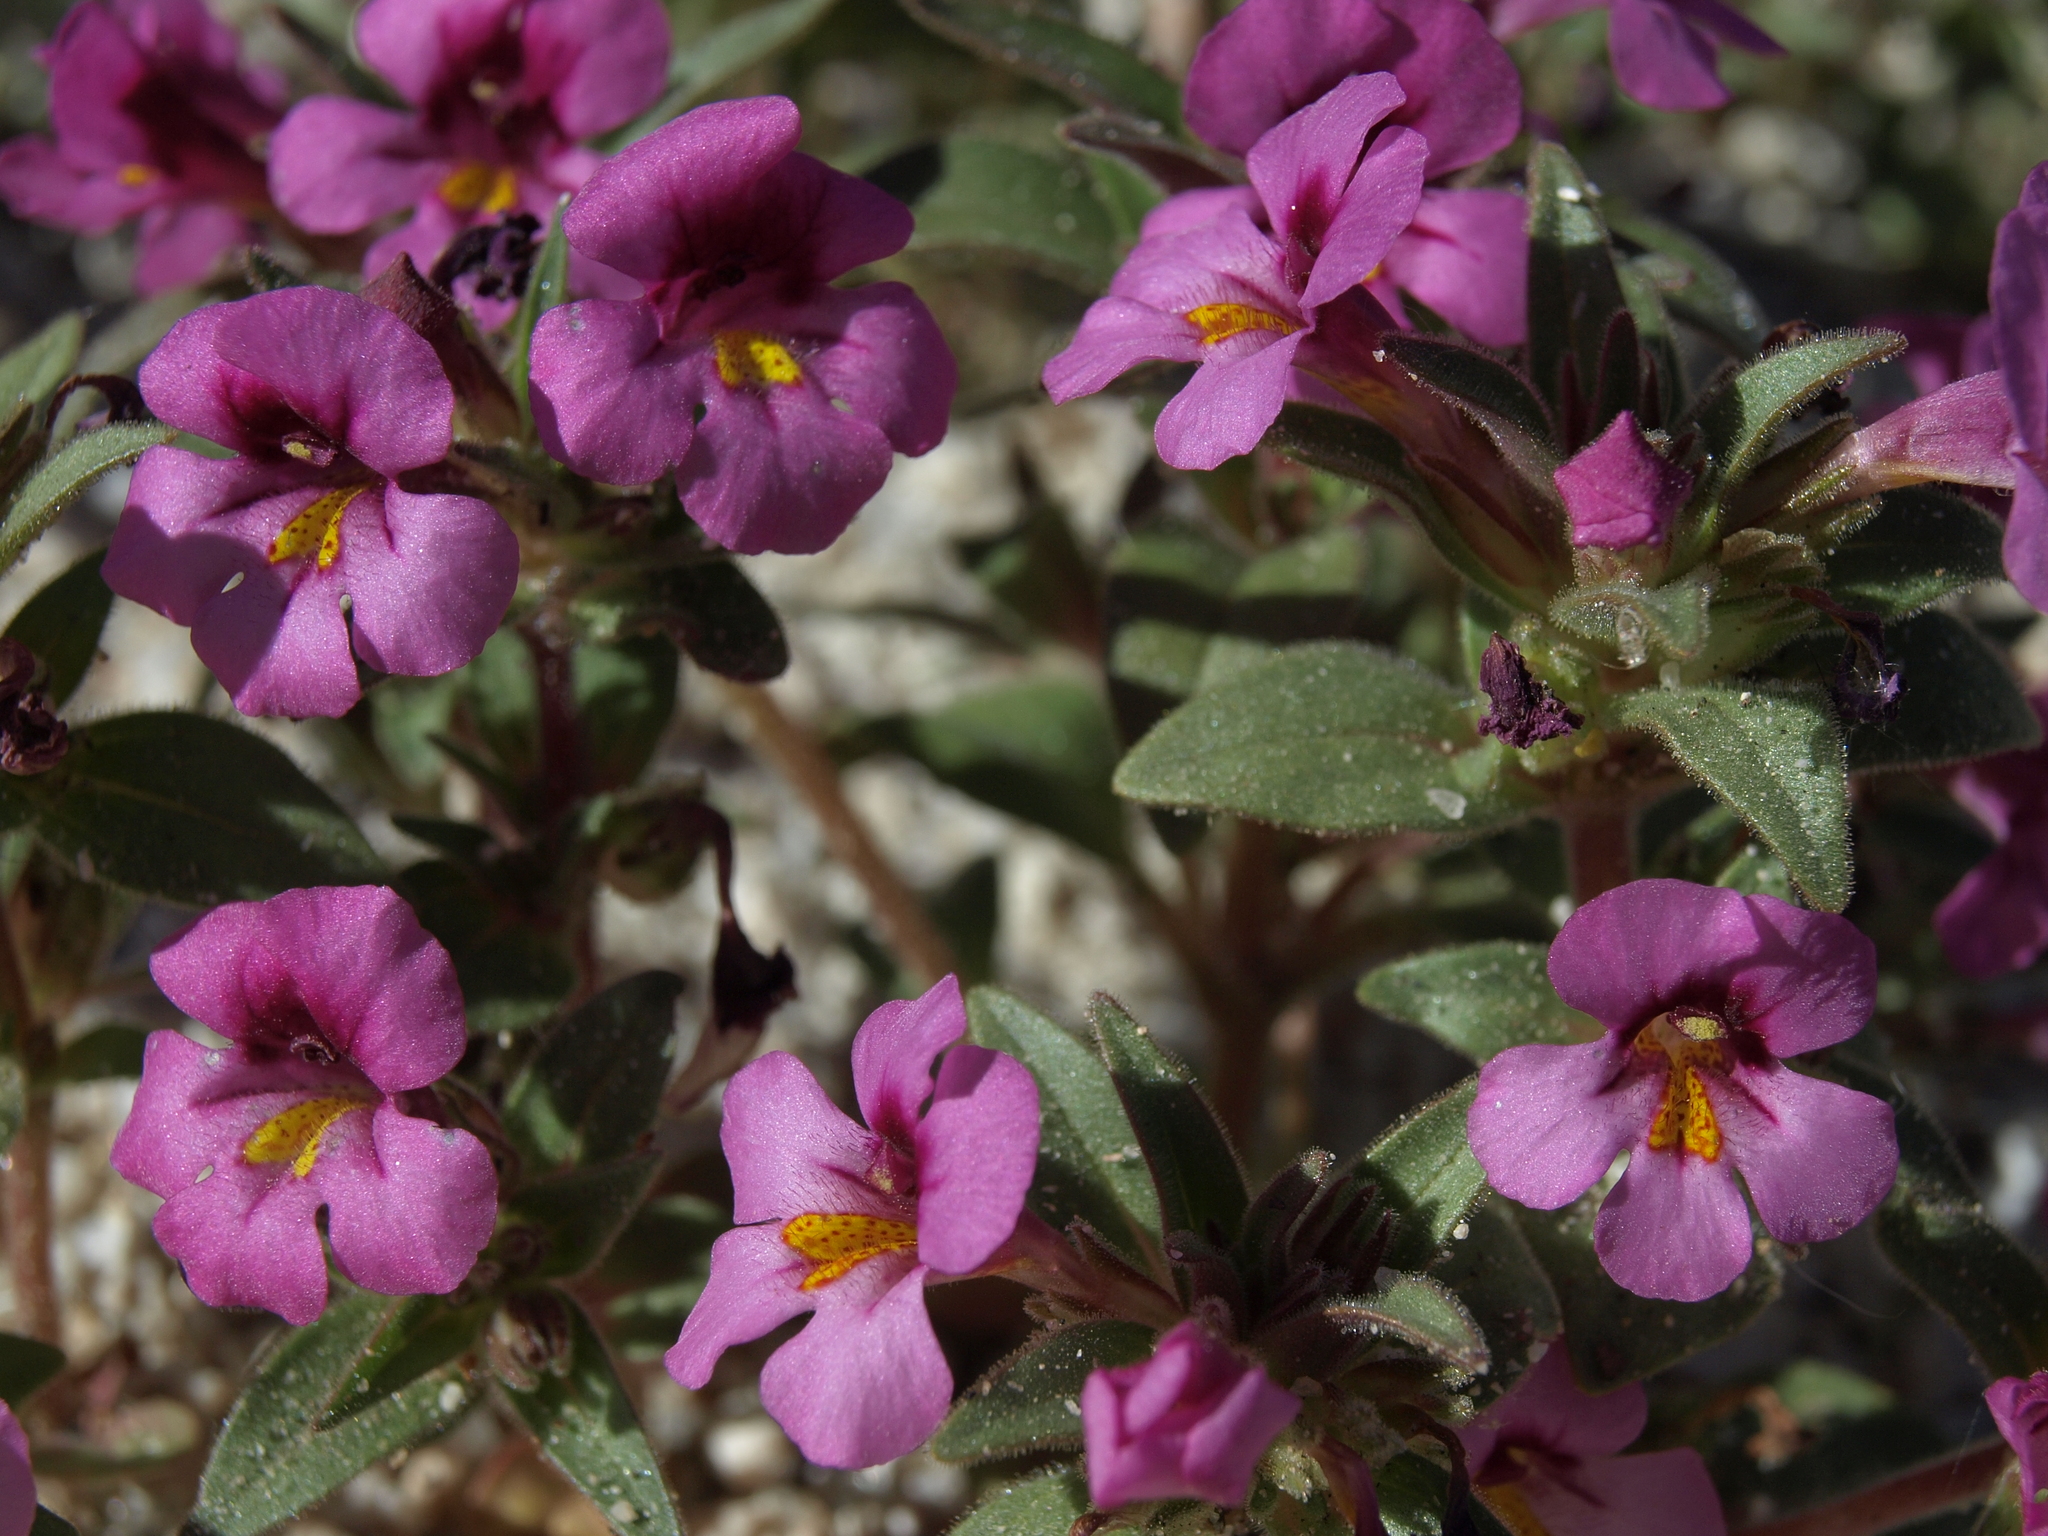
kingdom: Plantae
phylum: Tracheophyta
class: Magnoliopsida
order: Lamiales
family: Phrymaceae
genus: Diplacus
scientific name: Diplacus ovatus
